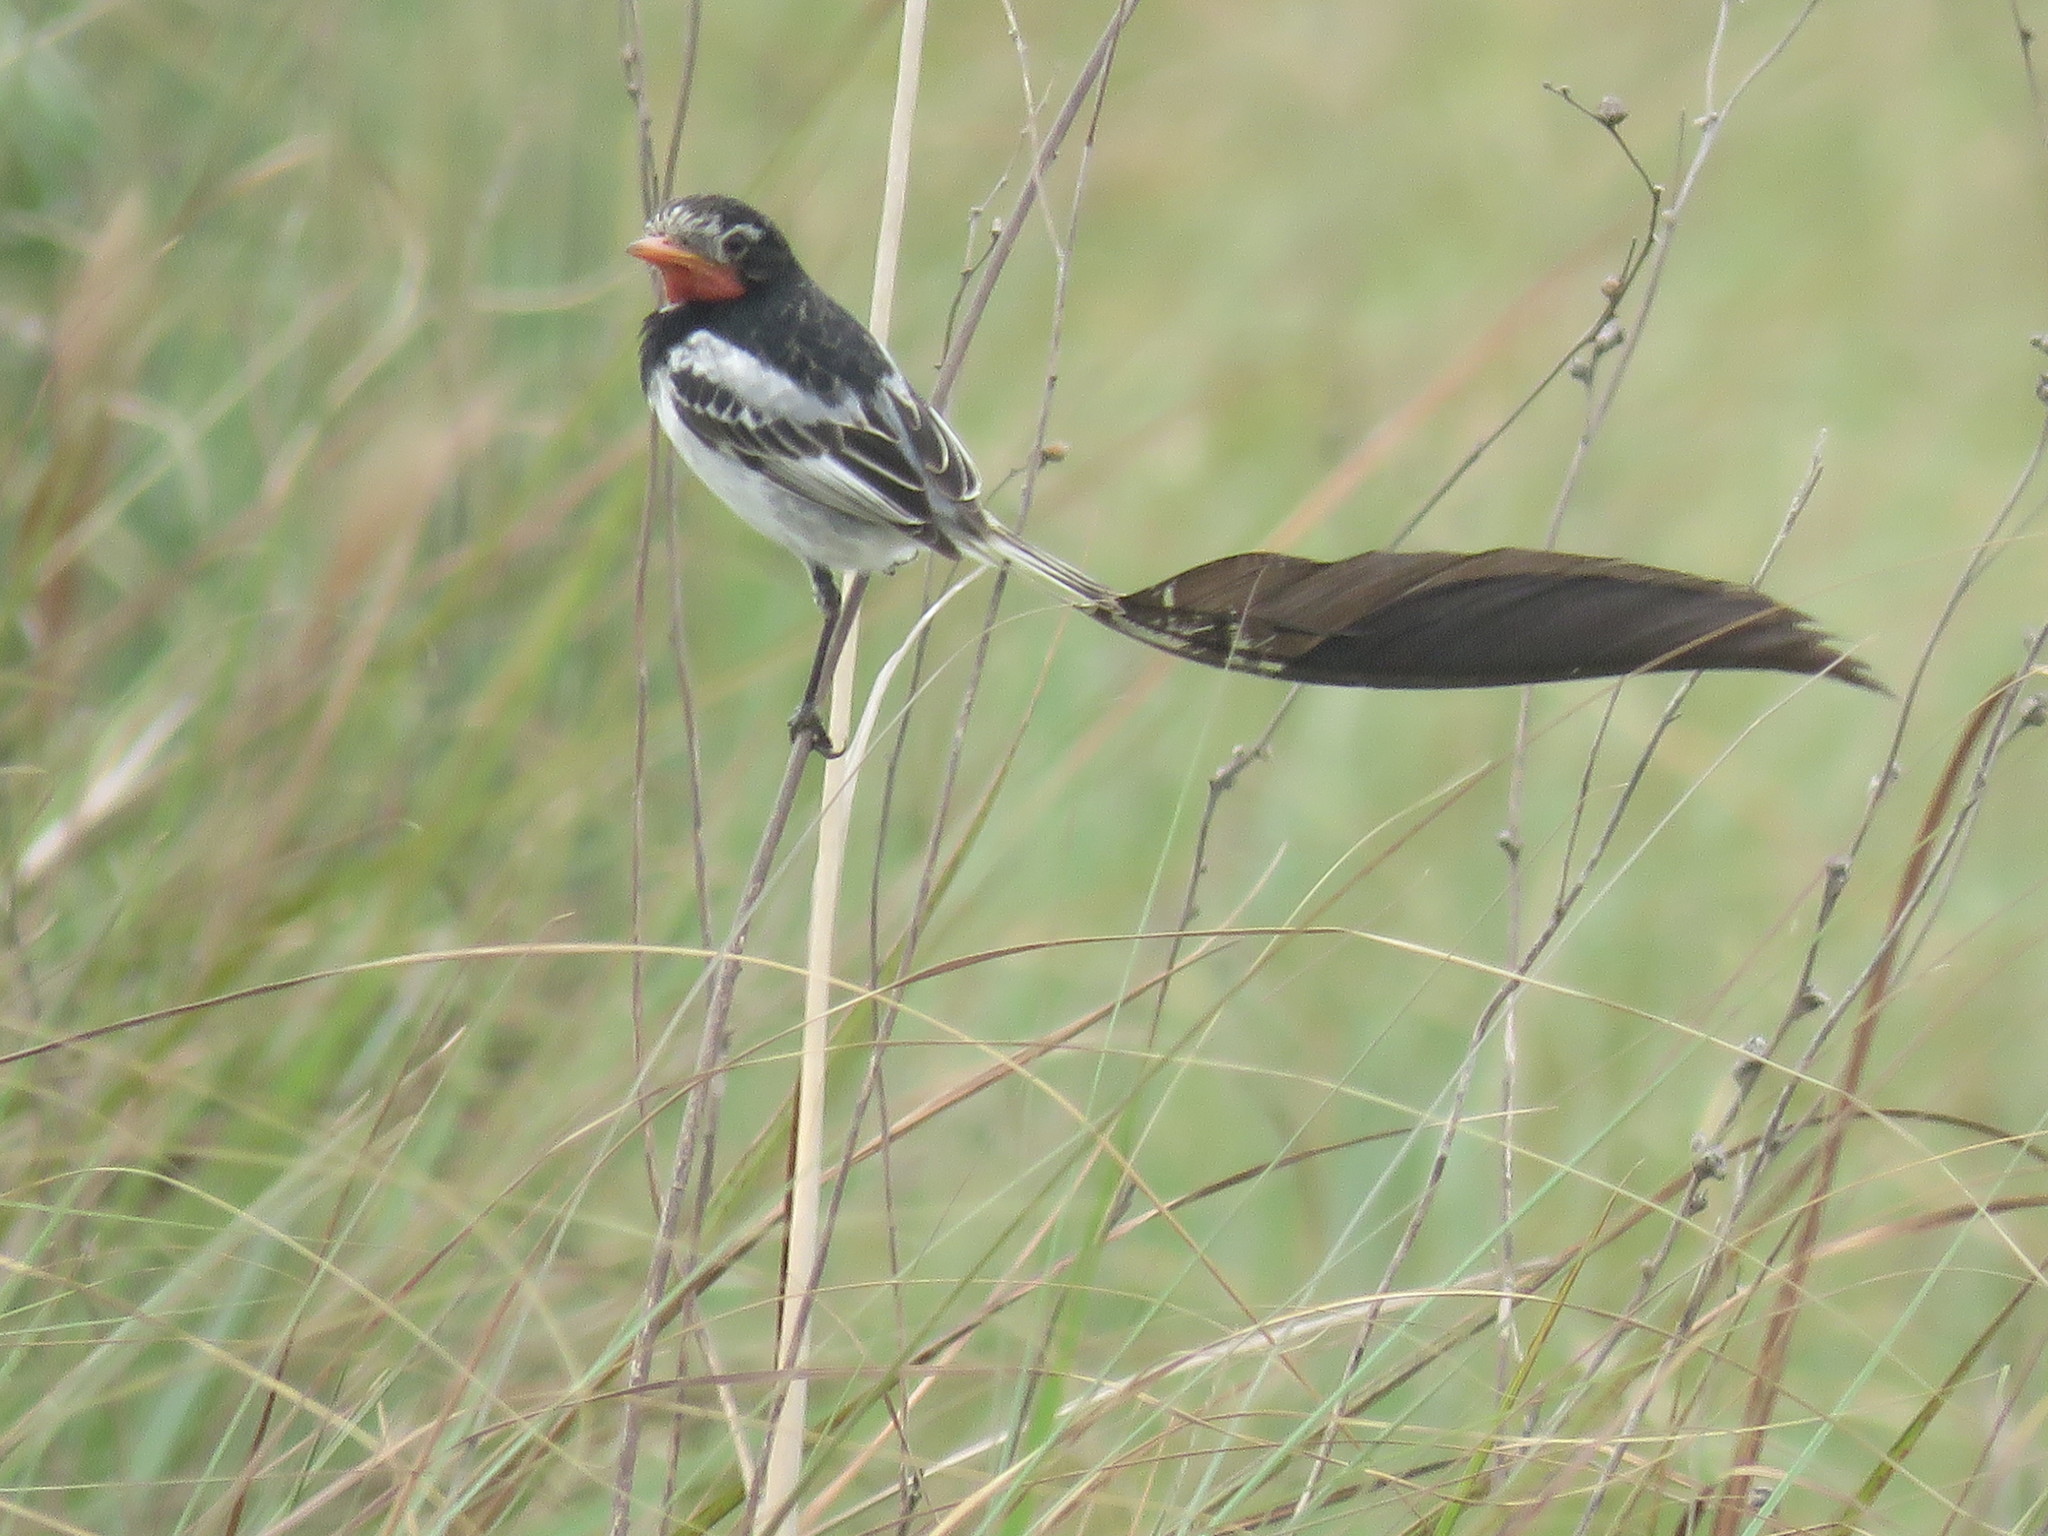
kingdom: Animalia
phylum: Chordata
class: Aves
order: Passeriformes
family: Tyrannidae
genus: Alectrurus
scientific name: Alectrurus risora
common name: Strange-tailed tyrant
